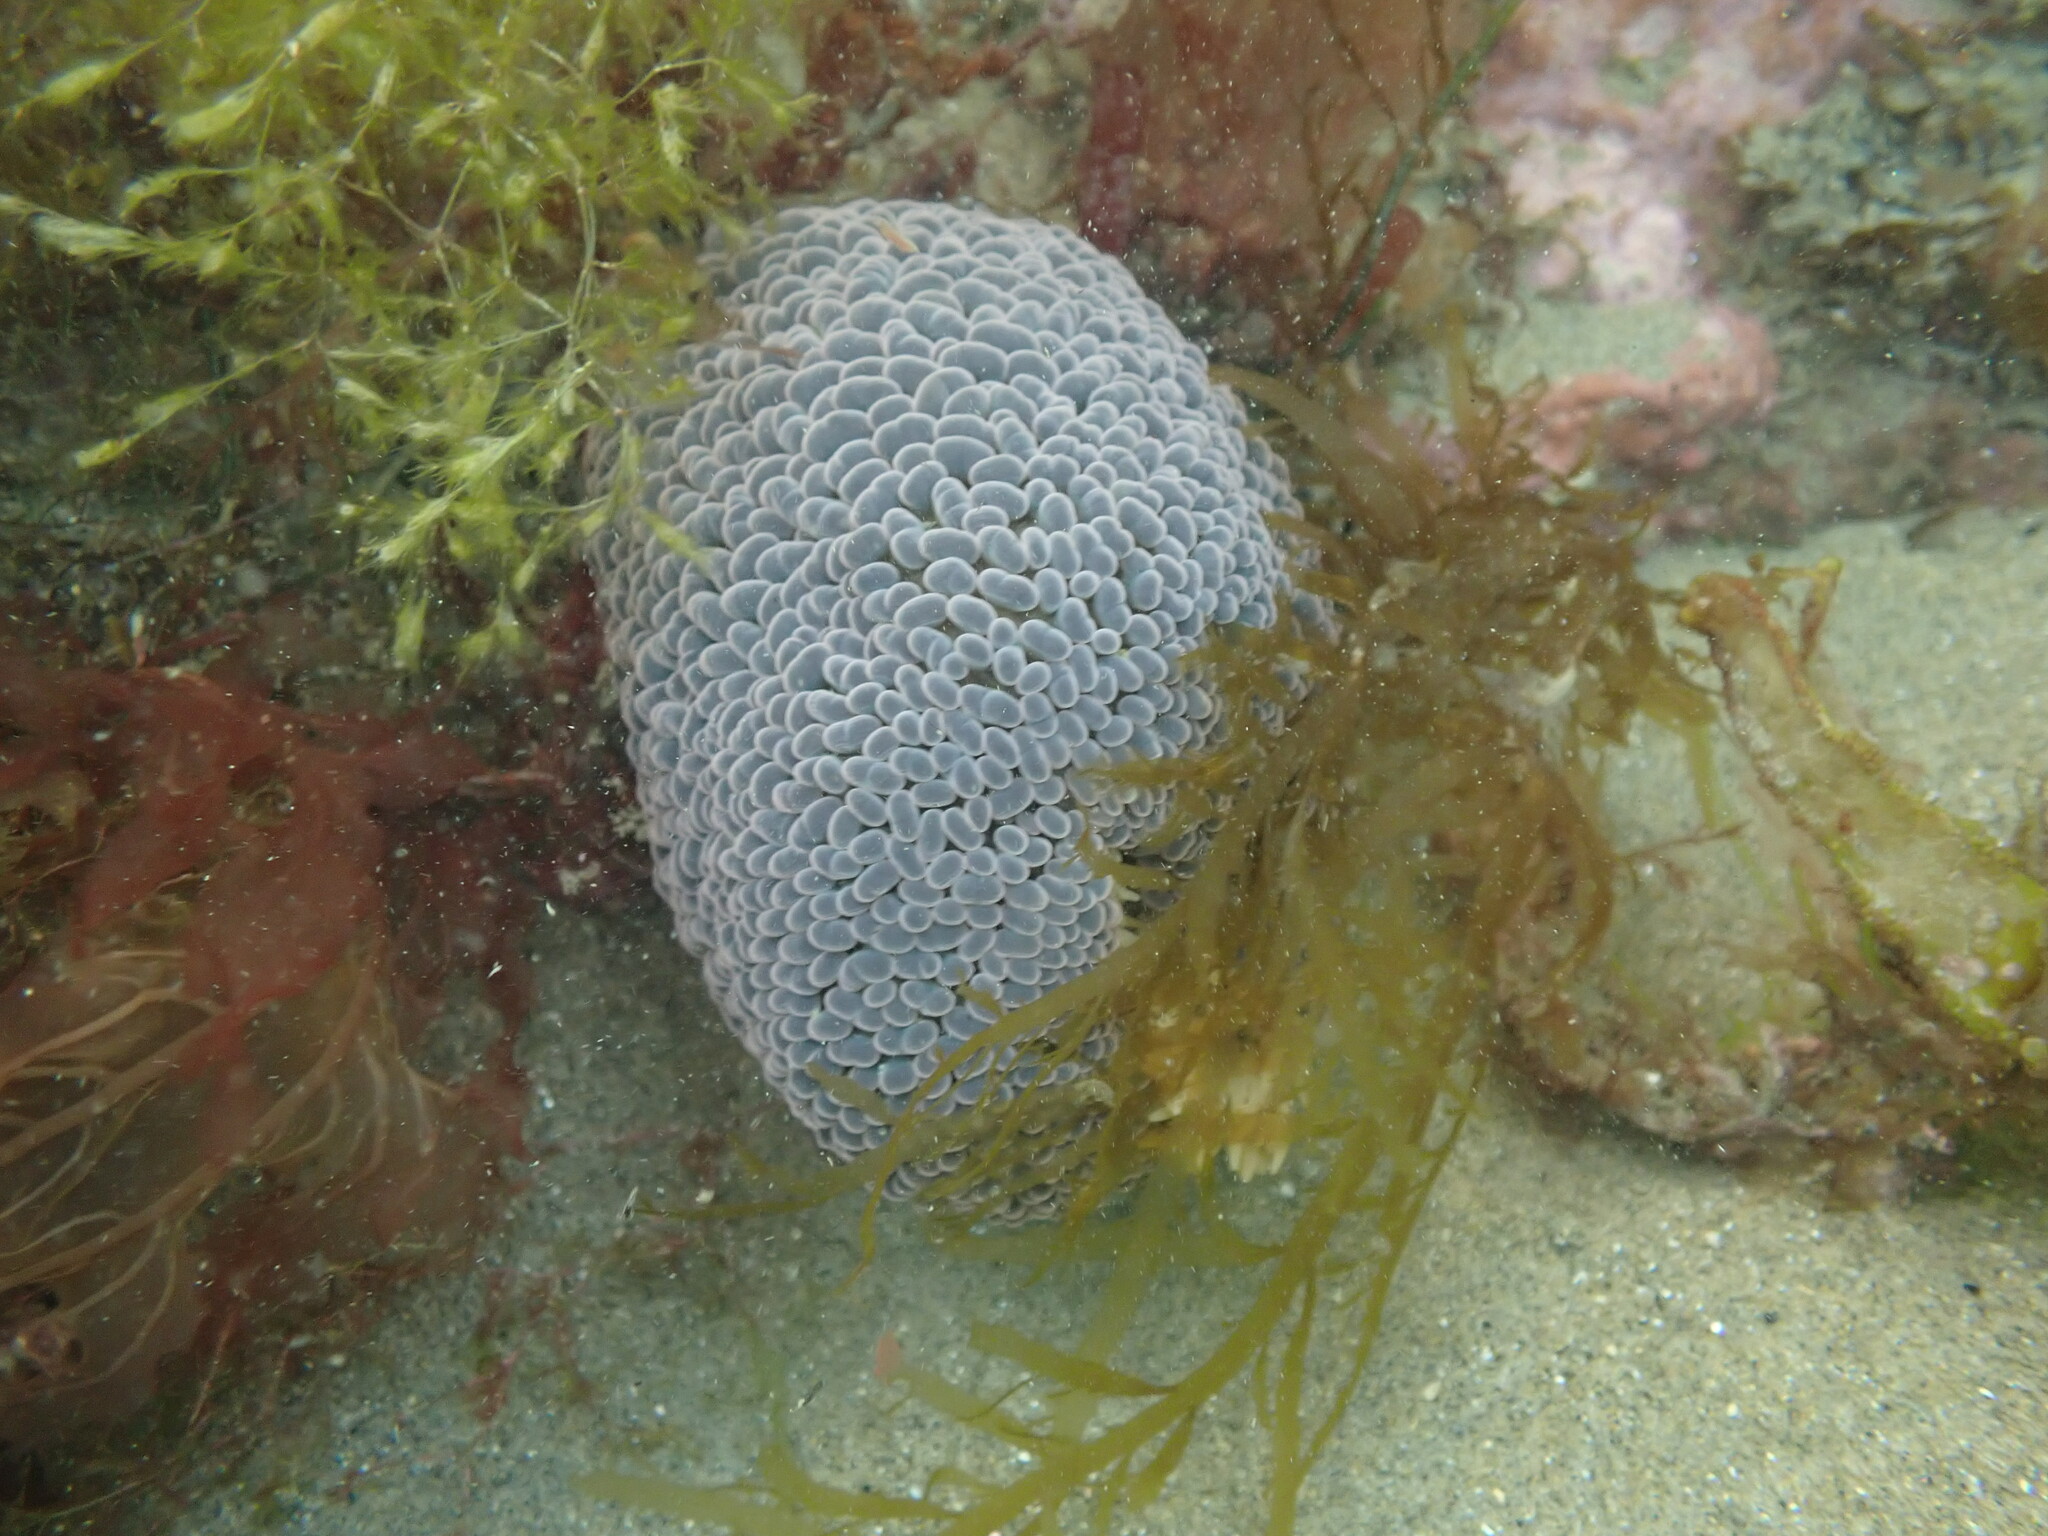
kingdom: Animalia
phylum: Cnidaria
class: Anthozoa
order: Actiniaria
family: Actiniidae
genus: Phlyctenactis
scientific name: Phlyctenactis tuberculosa
